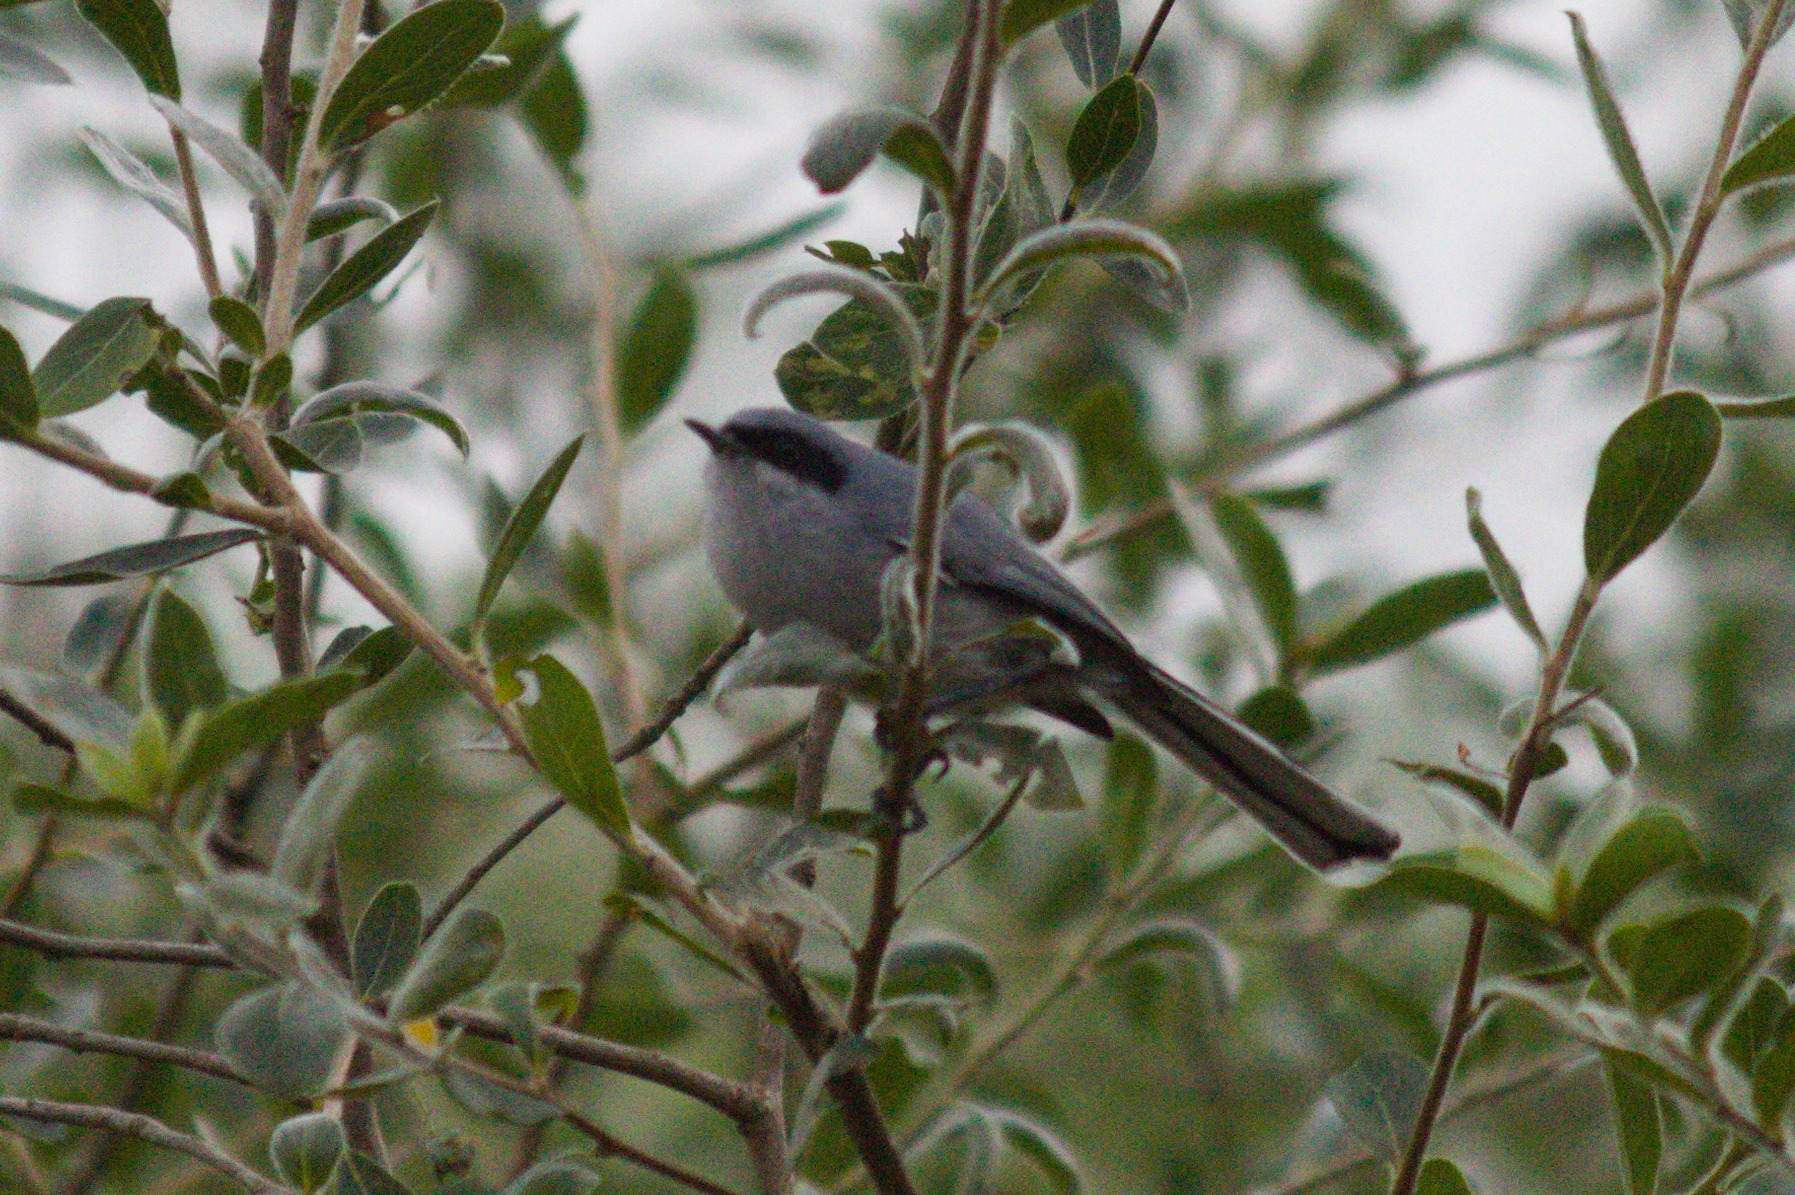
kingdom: Animalia
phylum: Chordata
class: Aves
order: Passeriformes
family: Polioptilidae
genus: Polioptila
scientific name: Polioptila dumicola
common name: Masked gnatcatcher
